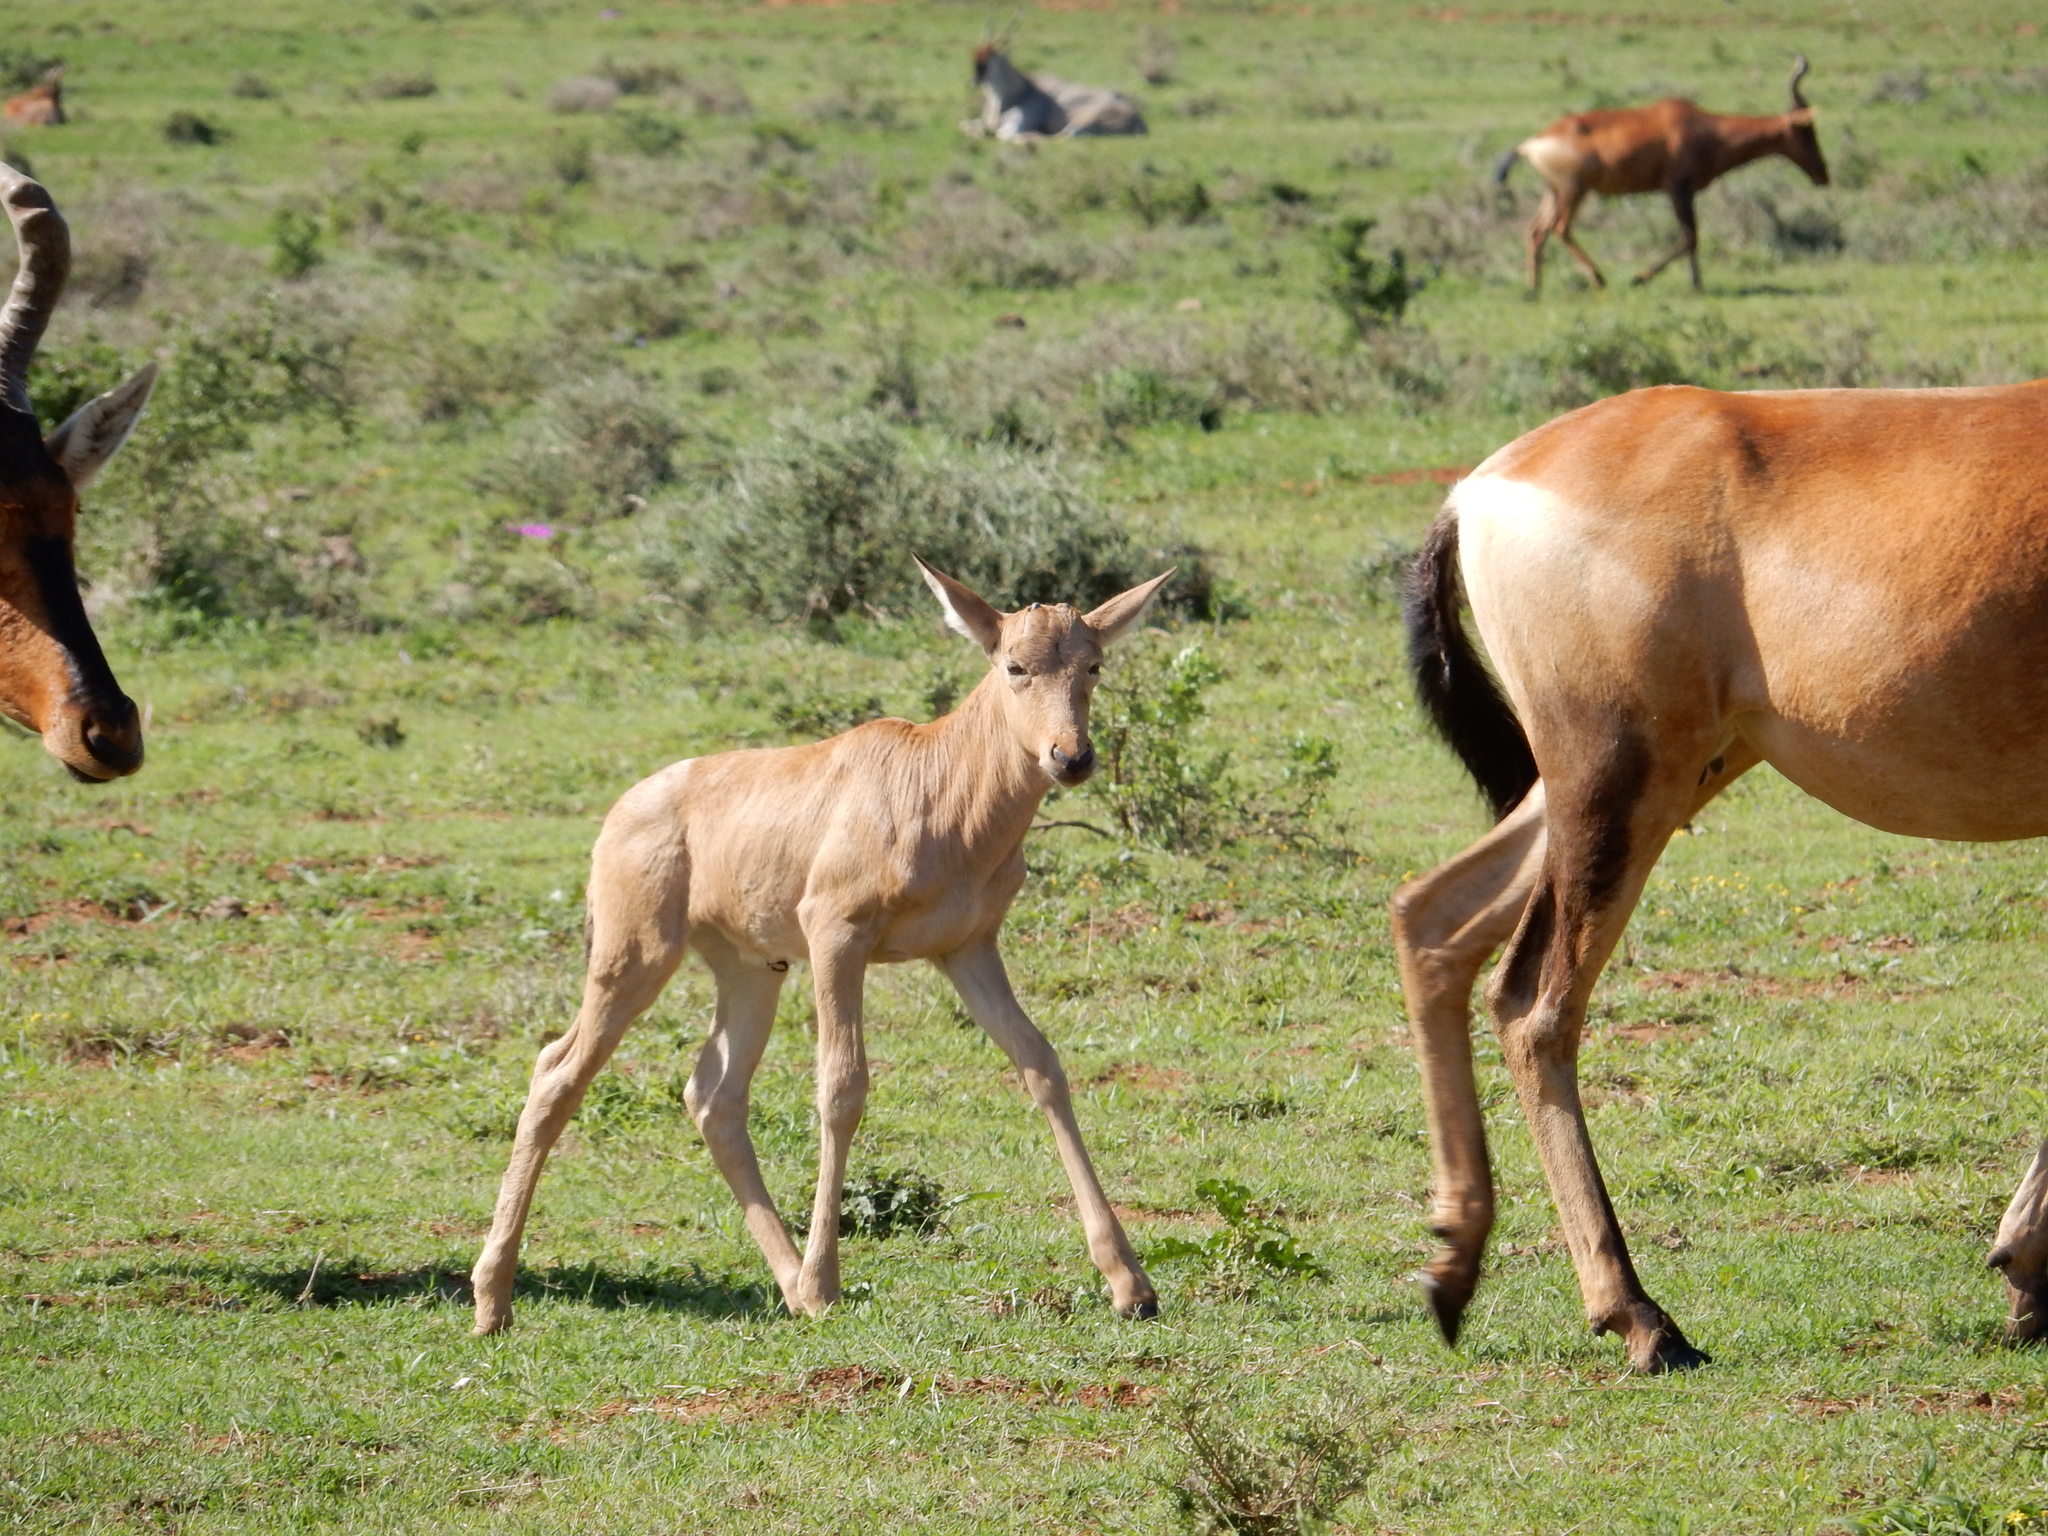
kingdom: Animalia
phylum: Chordata
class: Mammalia
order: Artiodactyla
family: Bovidae
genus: Alcelaphus
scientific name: Alcelaphus caama
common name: Red hartebeest
